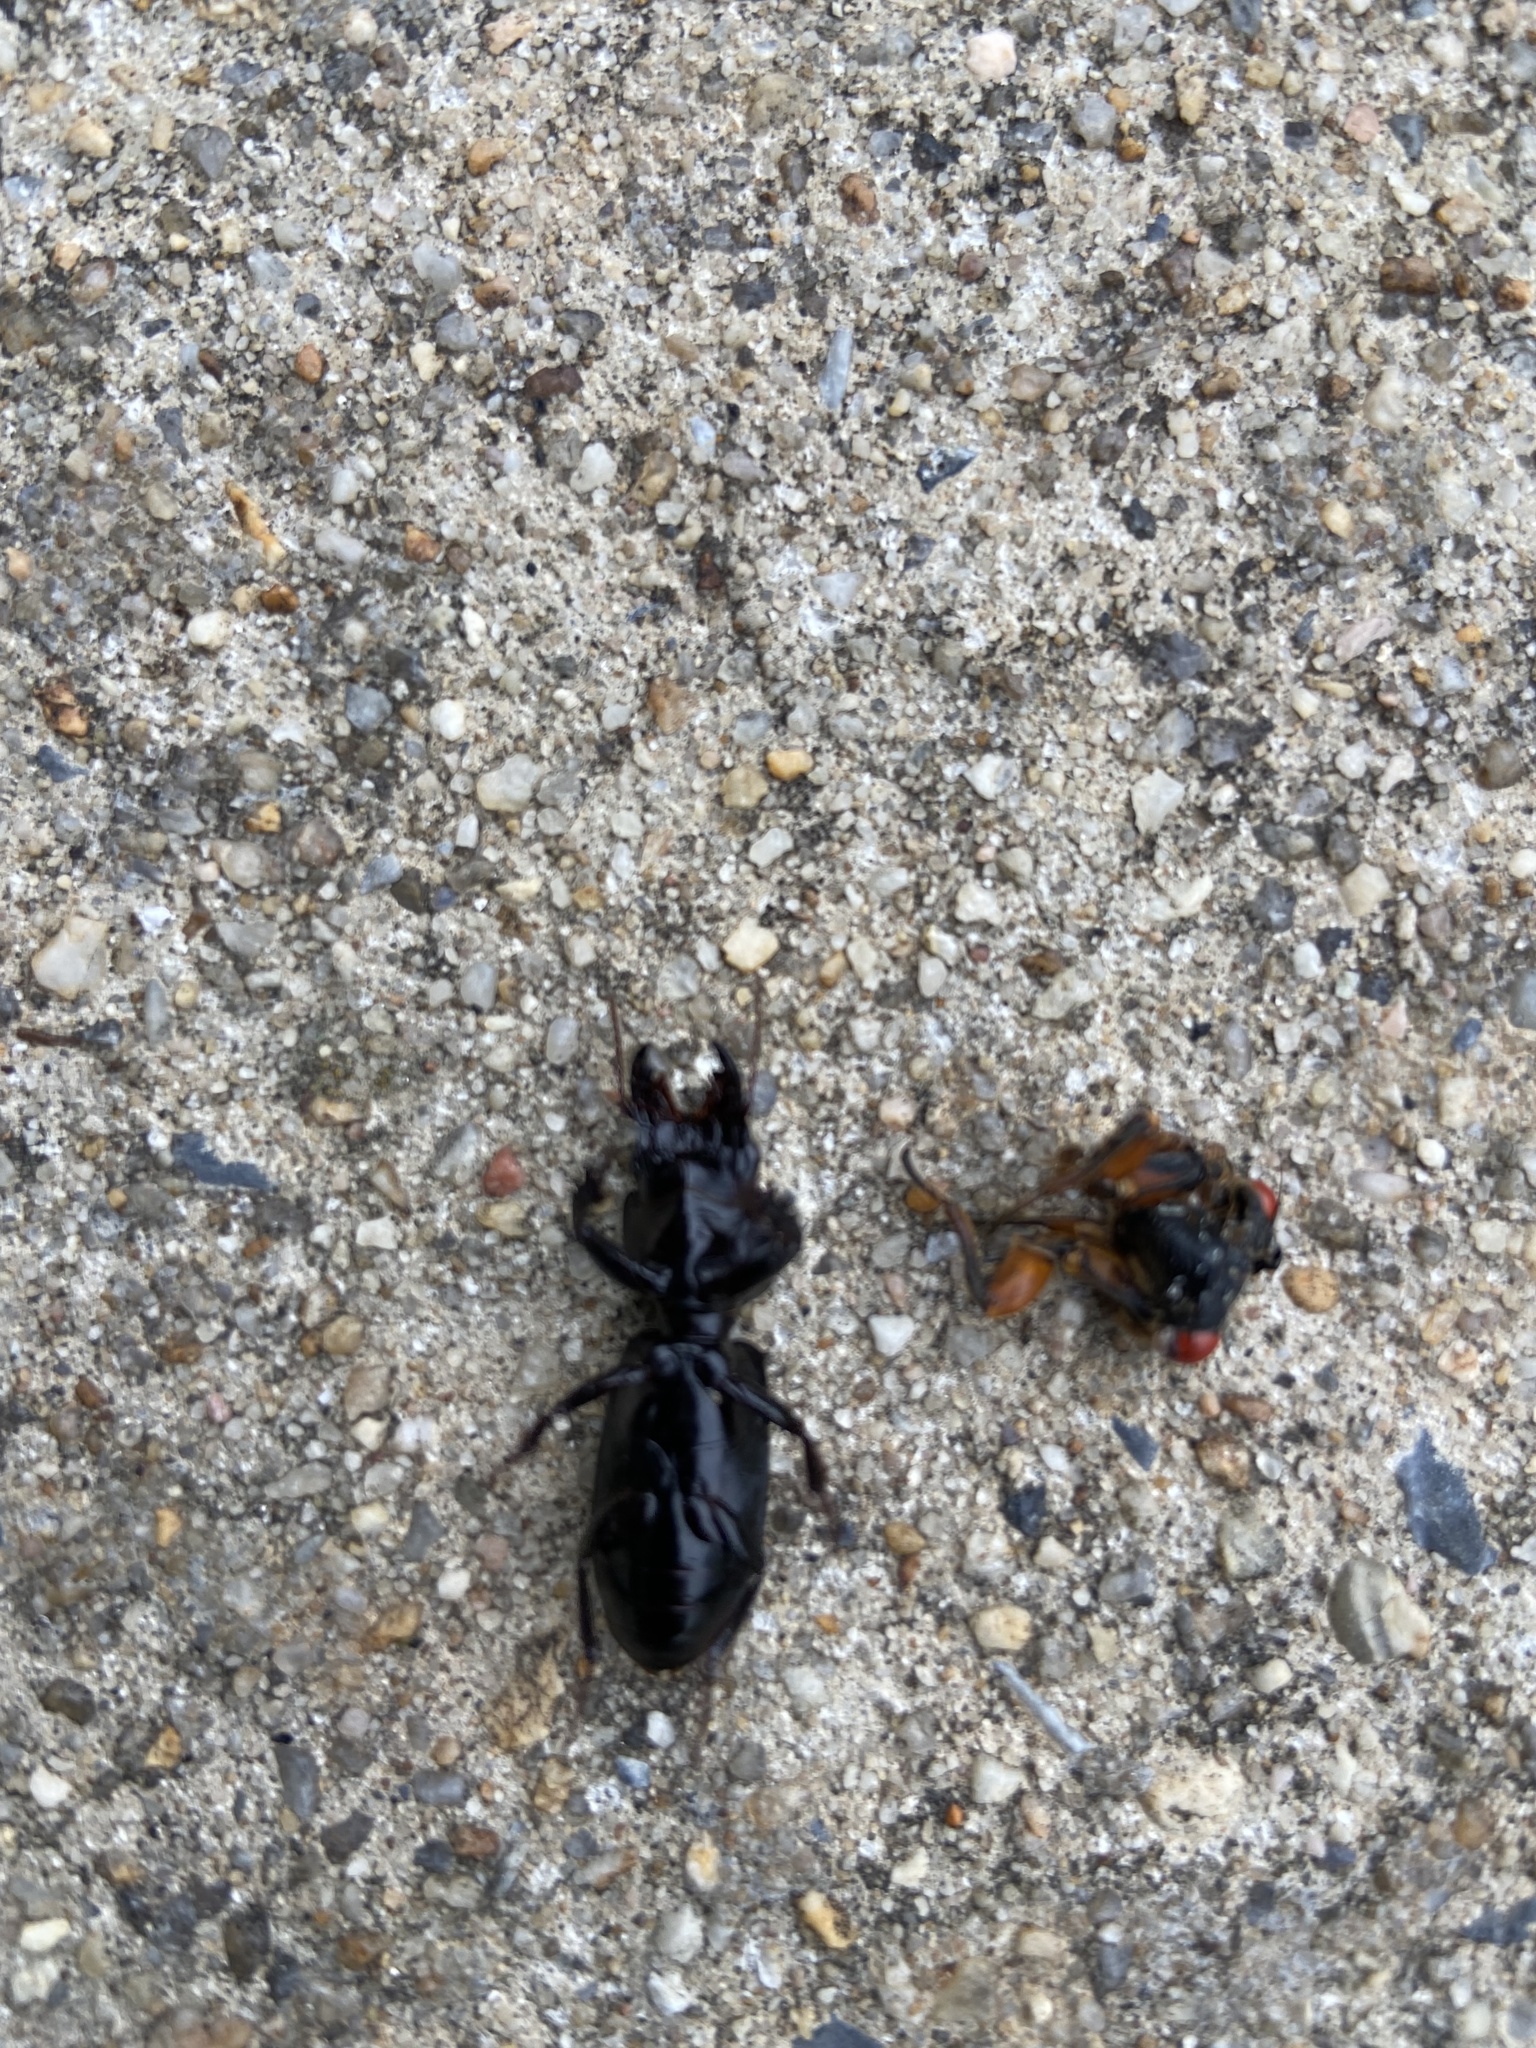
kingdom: Animalia
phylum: Arthropoda
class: Insecta
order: Coleoptera
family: Carabidae
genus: Scarites
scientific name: Scarites subterraneus
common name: Big-headed ground beetle
